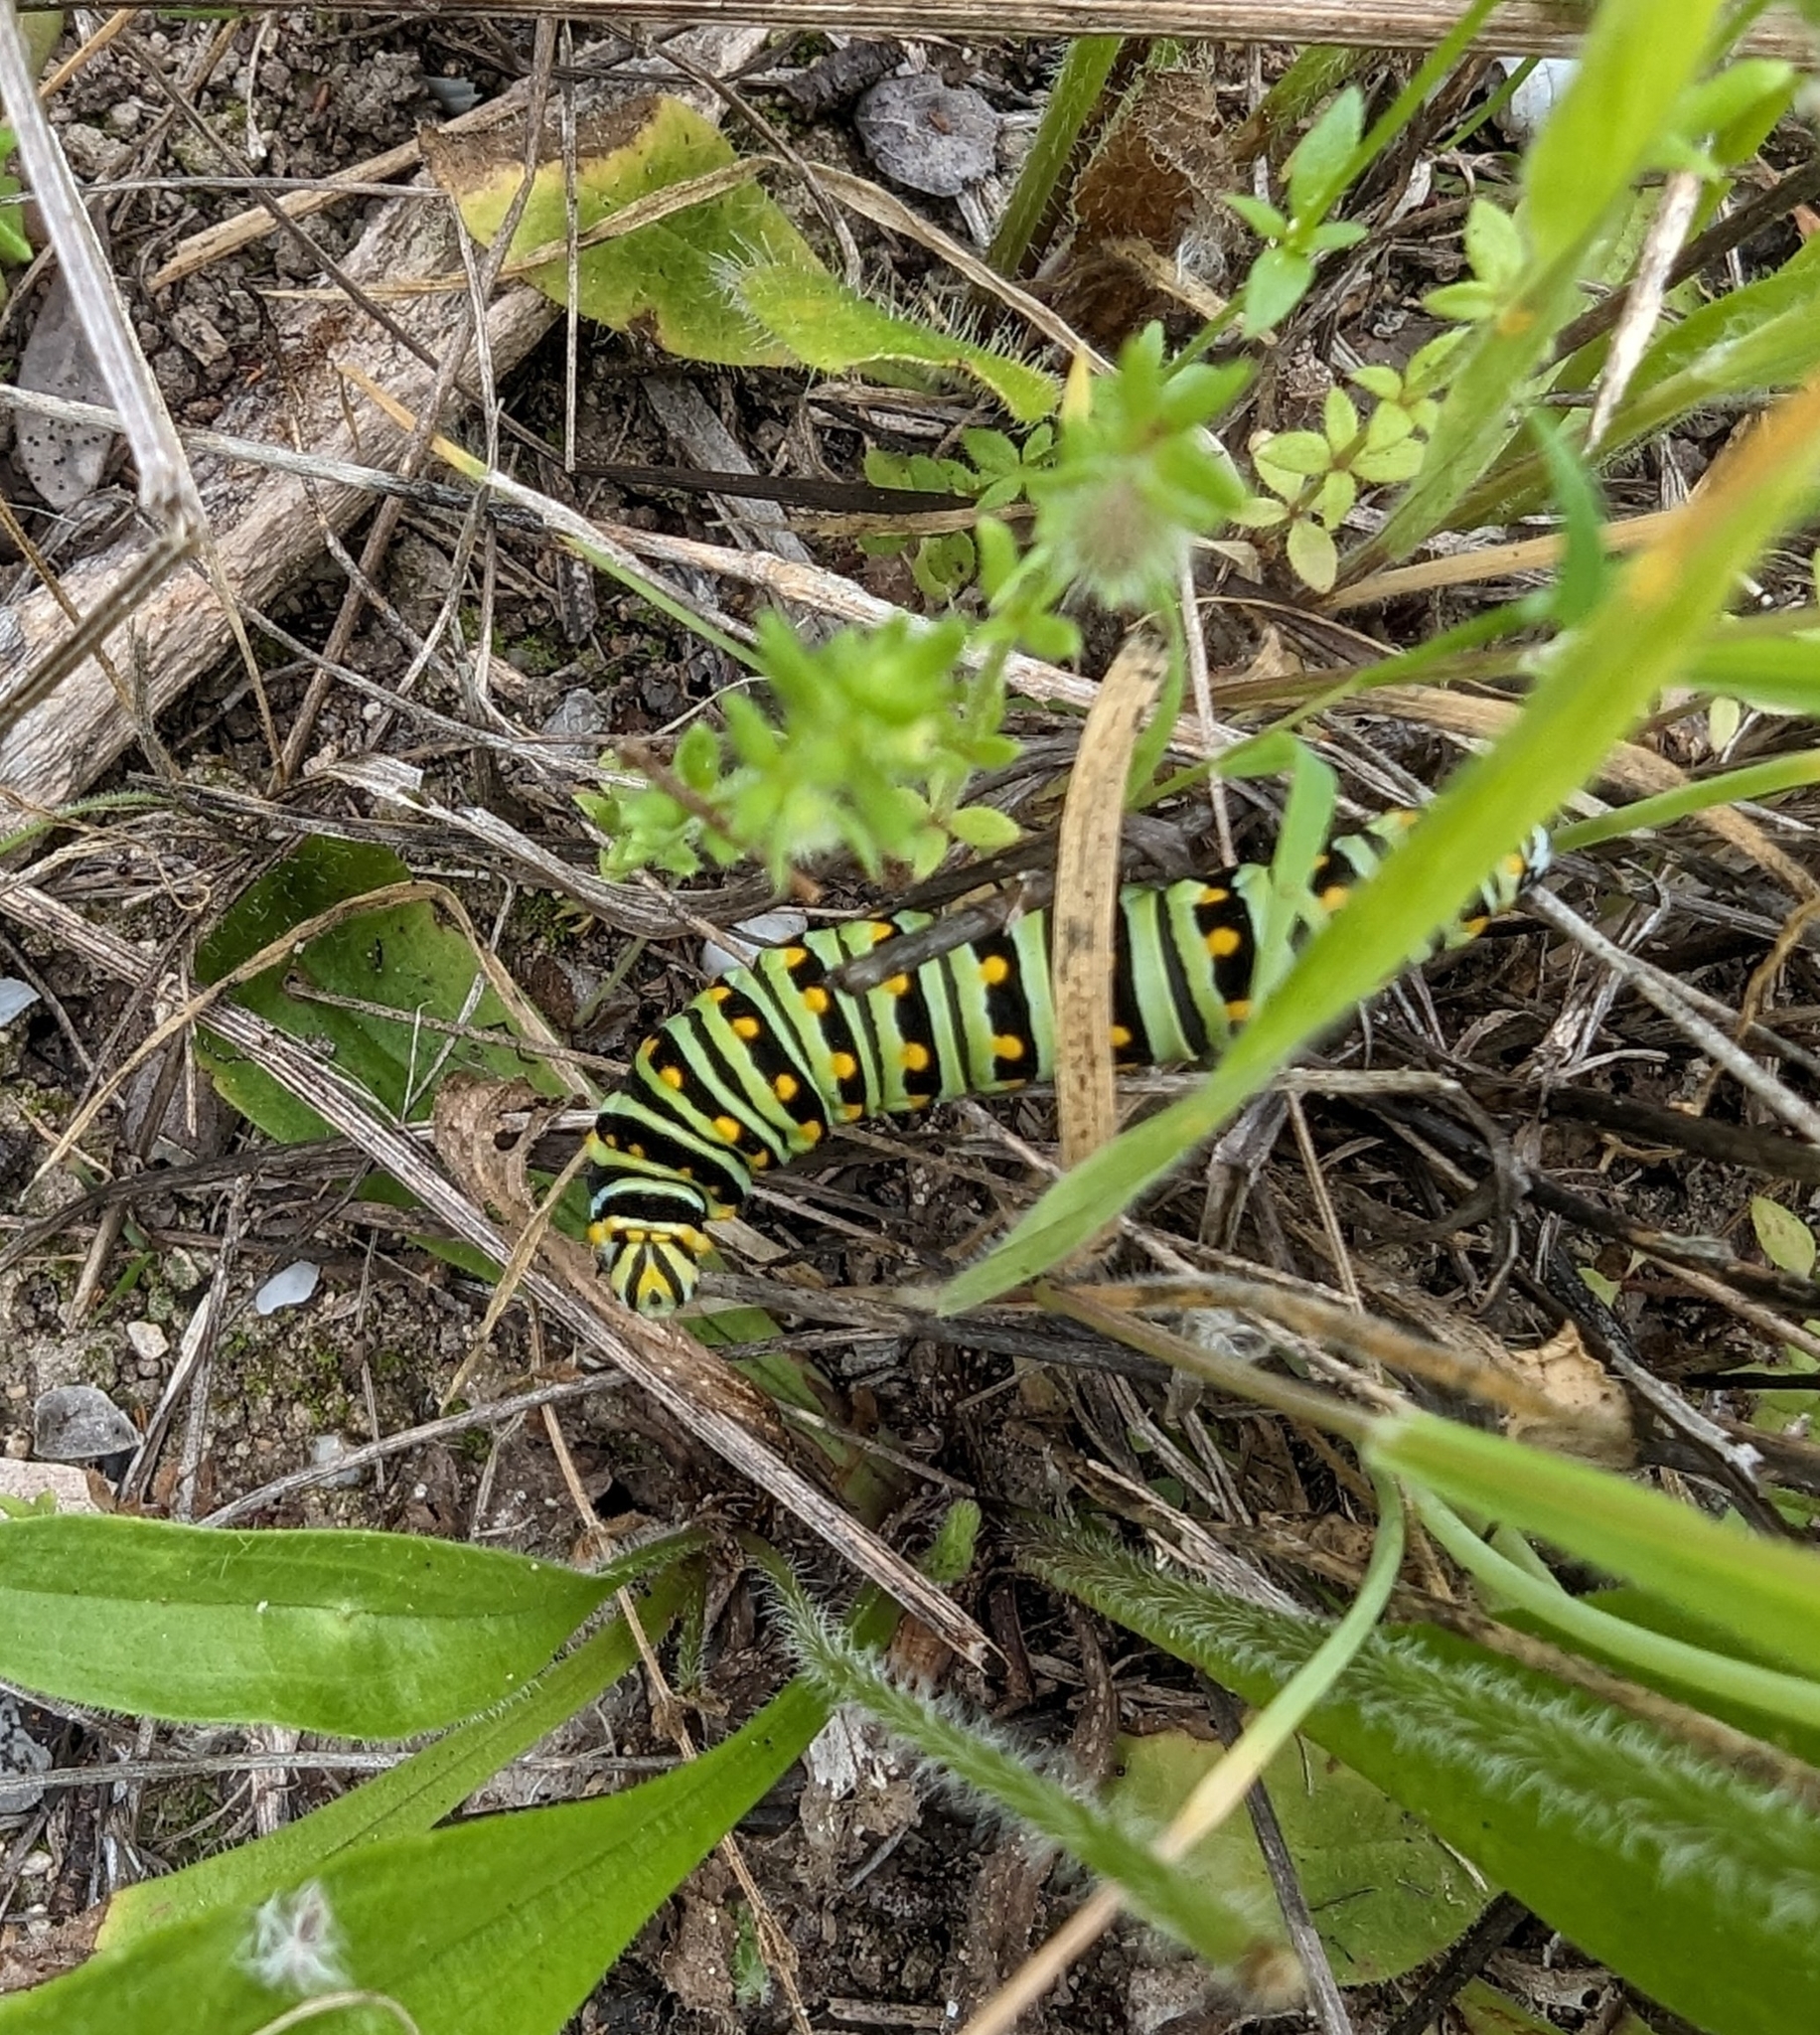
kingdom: Animalia
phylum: Arthropoda
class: Insecta
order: Lepidoptera
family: Papilionidae
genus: Papilio
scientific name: Papilio polyxenes
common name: Black swallowtail
